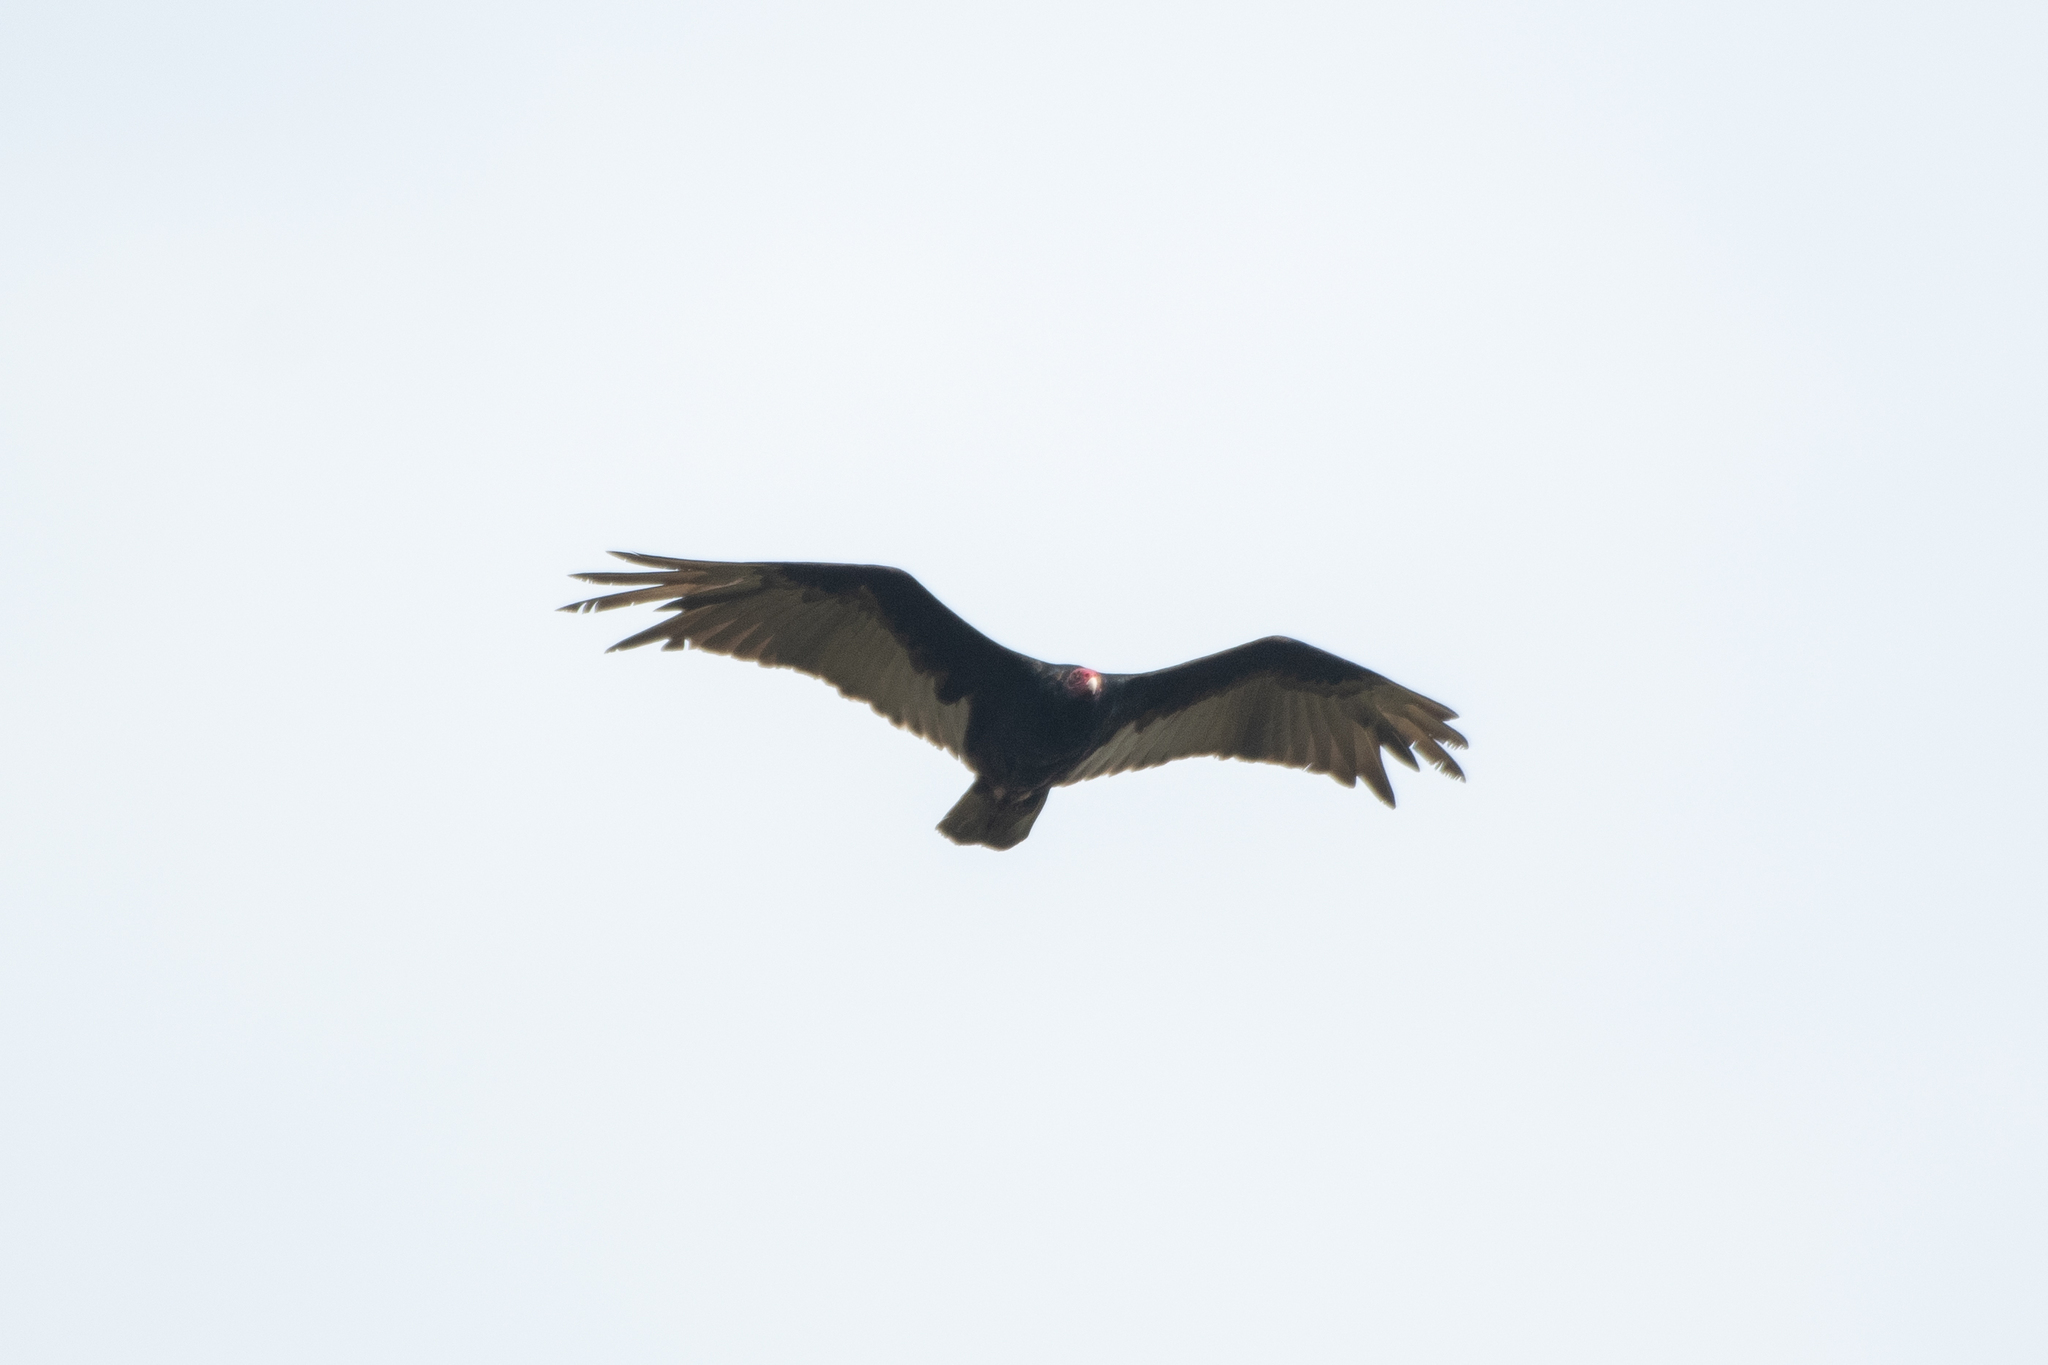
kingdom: Animalia
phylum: Chordata
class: Aves
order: Accipitriformes
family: Cathartidae
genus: Cathartes
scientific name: Cathartes aura
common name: Turkey vulture
